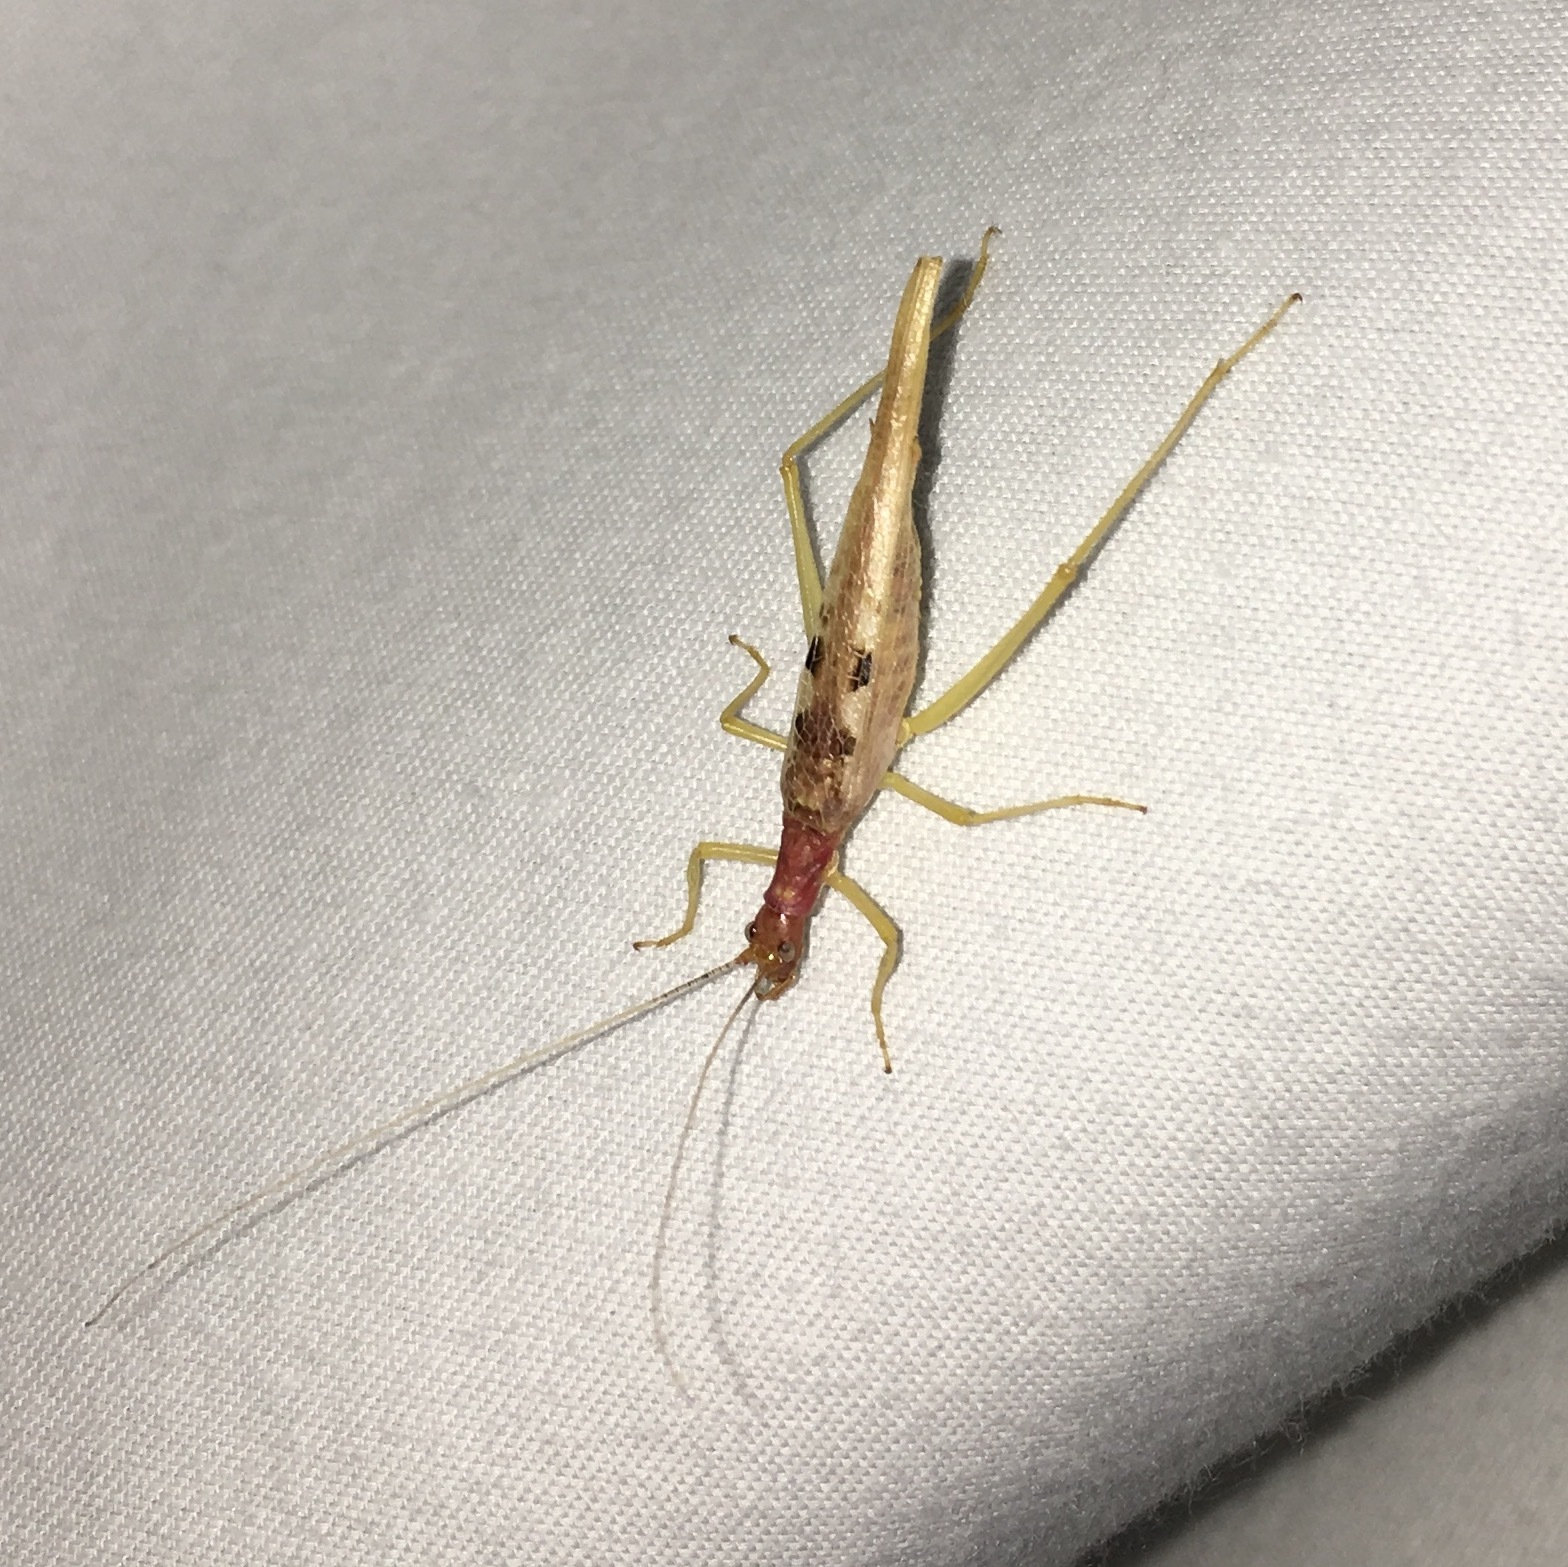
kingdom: Animalia
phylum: Arthropoda
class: Insecta
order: Orthoptera
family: Gryllidae
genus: Neoxabea
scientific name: Neoxabea bipunctata
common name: Two-spotted tree cricket
